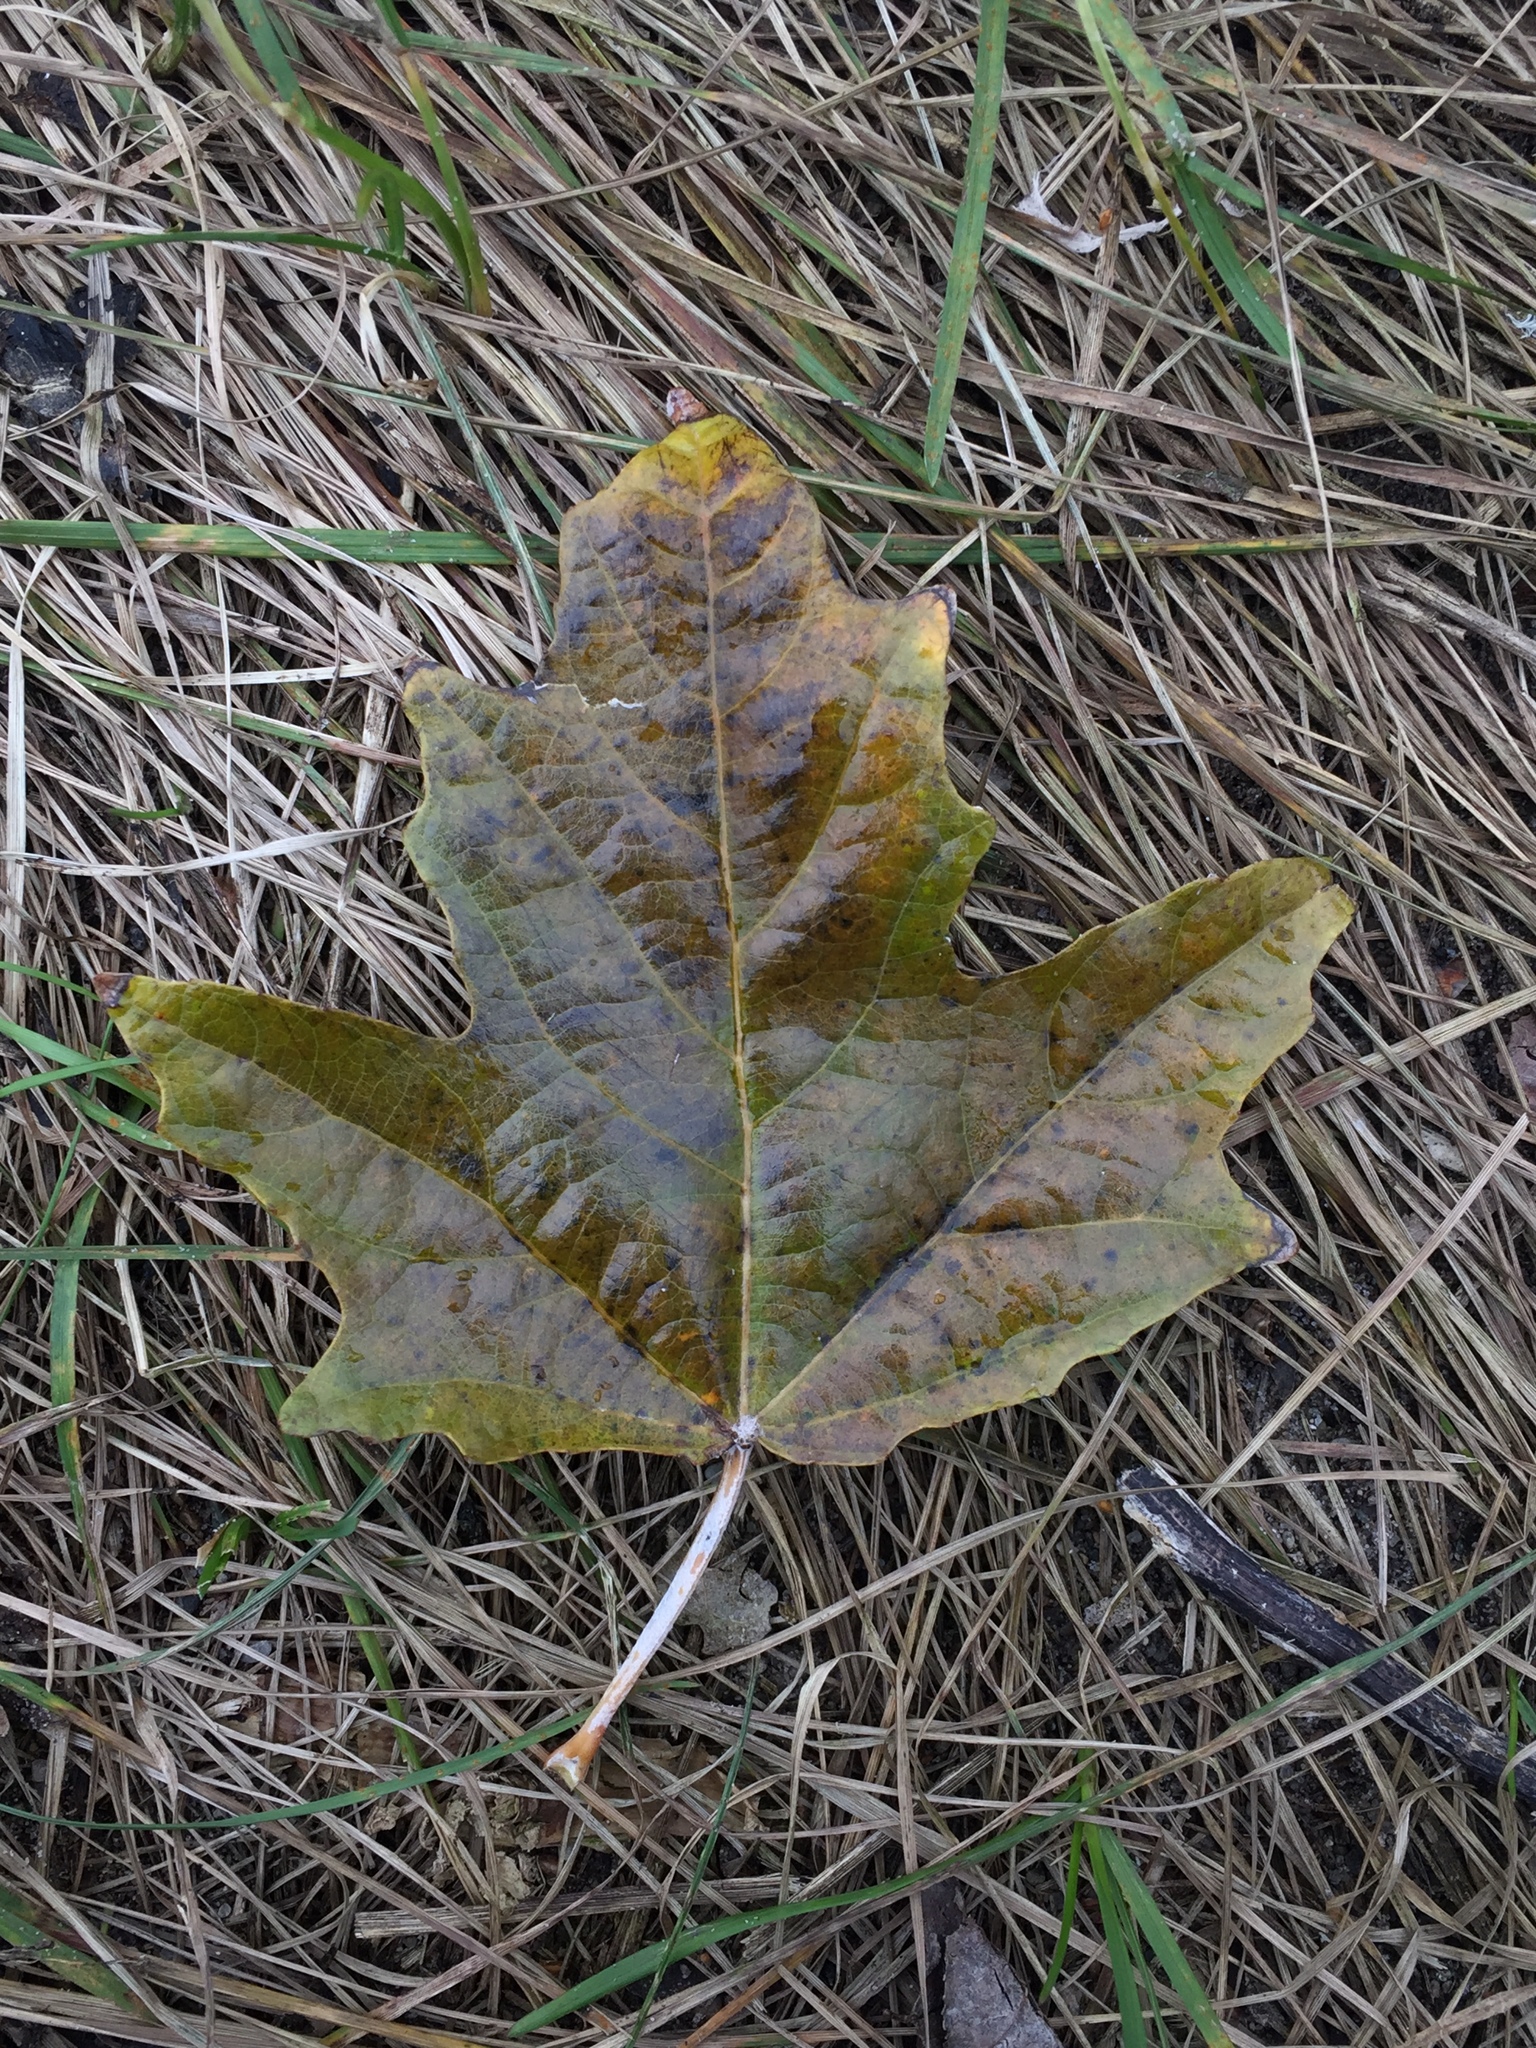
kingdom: Plantae
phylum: Tracheophyta
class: Magnoliopsida
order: Malpighiales
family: Salicaceae
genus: Populus
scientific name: Populus alba
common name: White poplar
